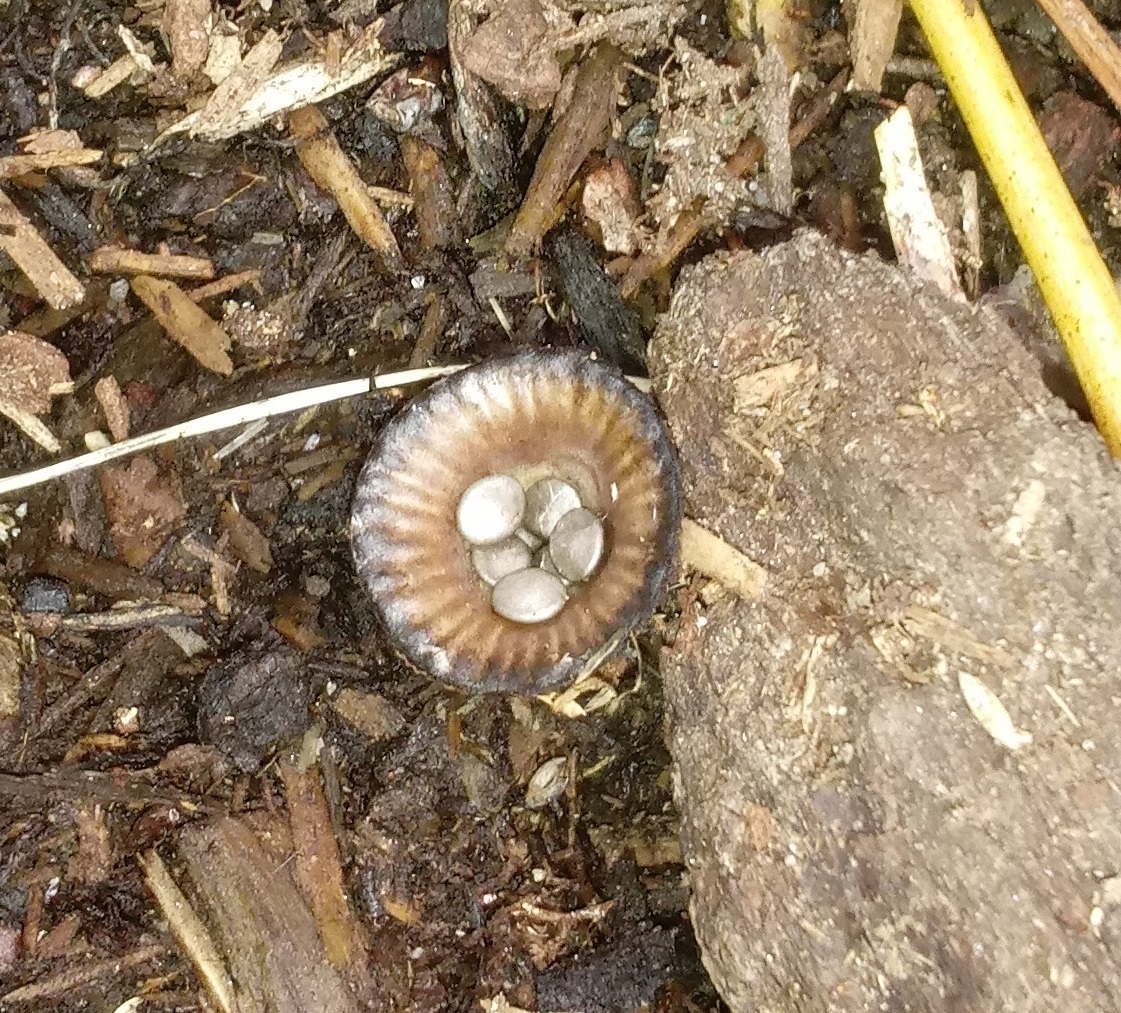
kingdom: Fungi
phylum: Basidiomycota
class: Agaricomycetes
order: Agaricales
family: Agaricaceae
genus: Cyathus
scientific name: Cyathus striatus
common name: Fluted bird's nest
